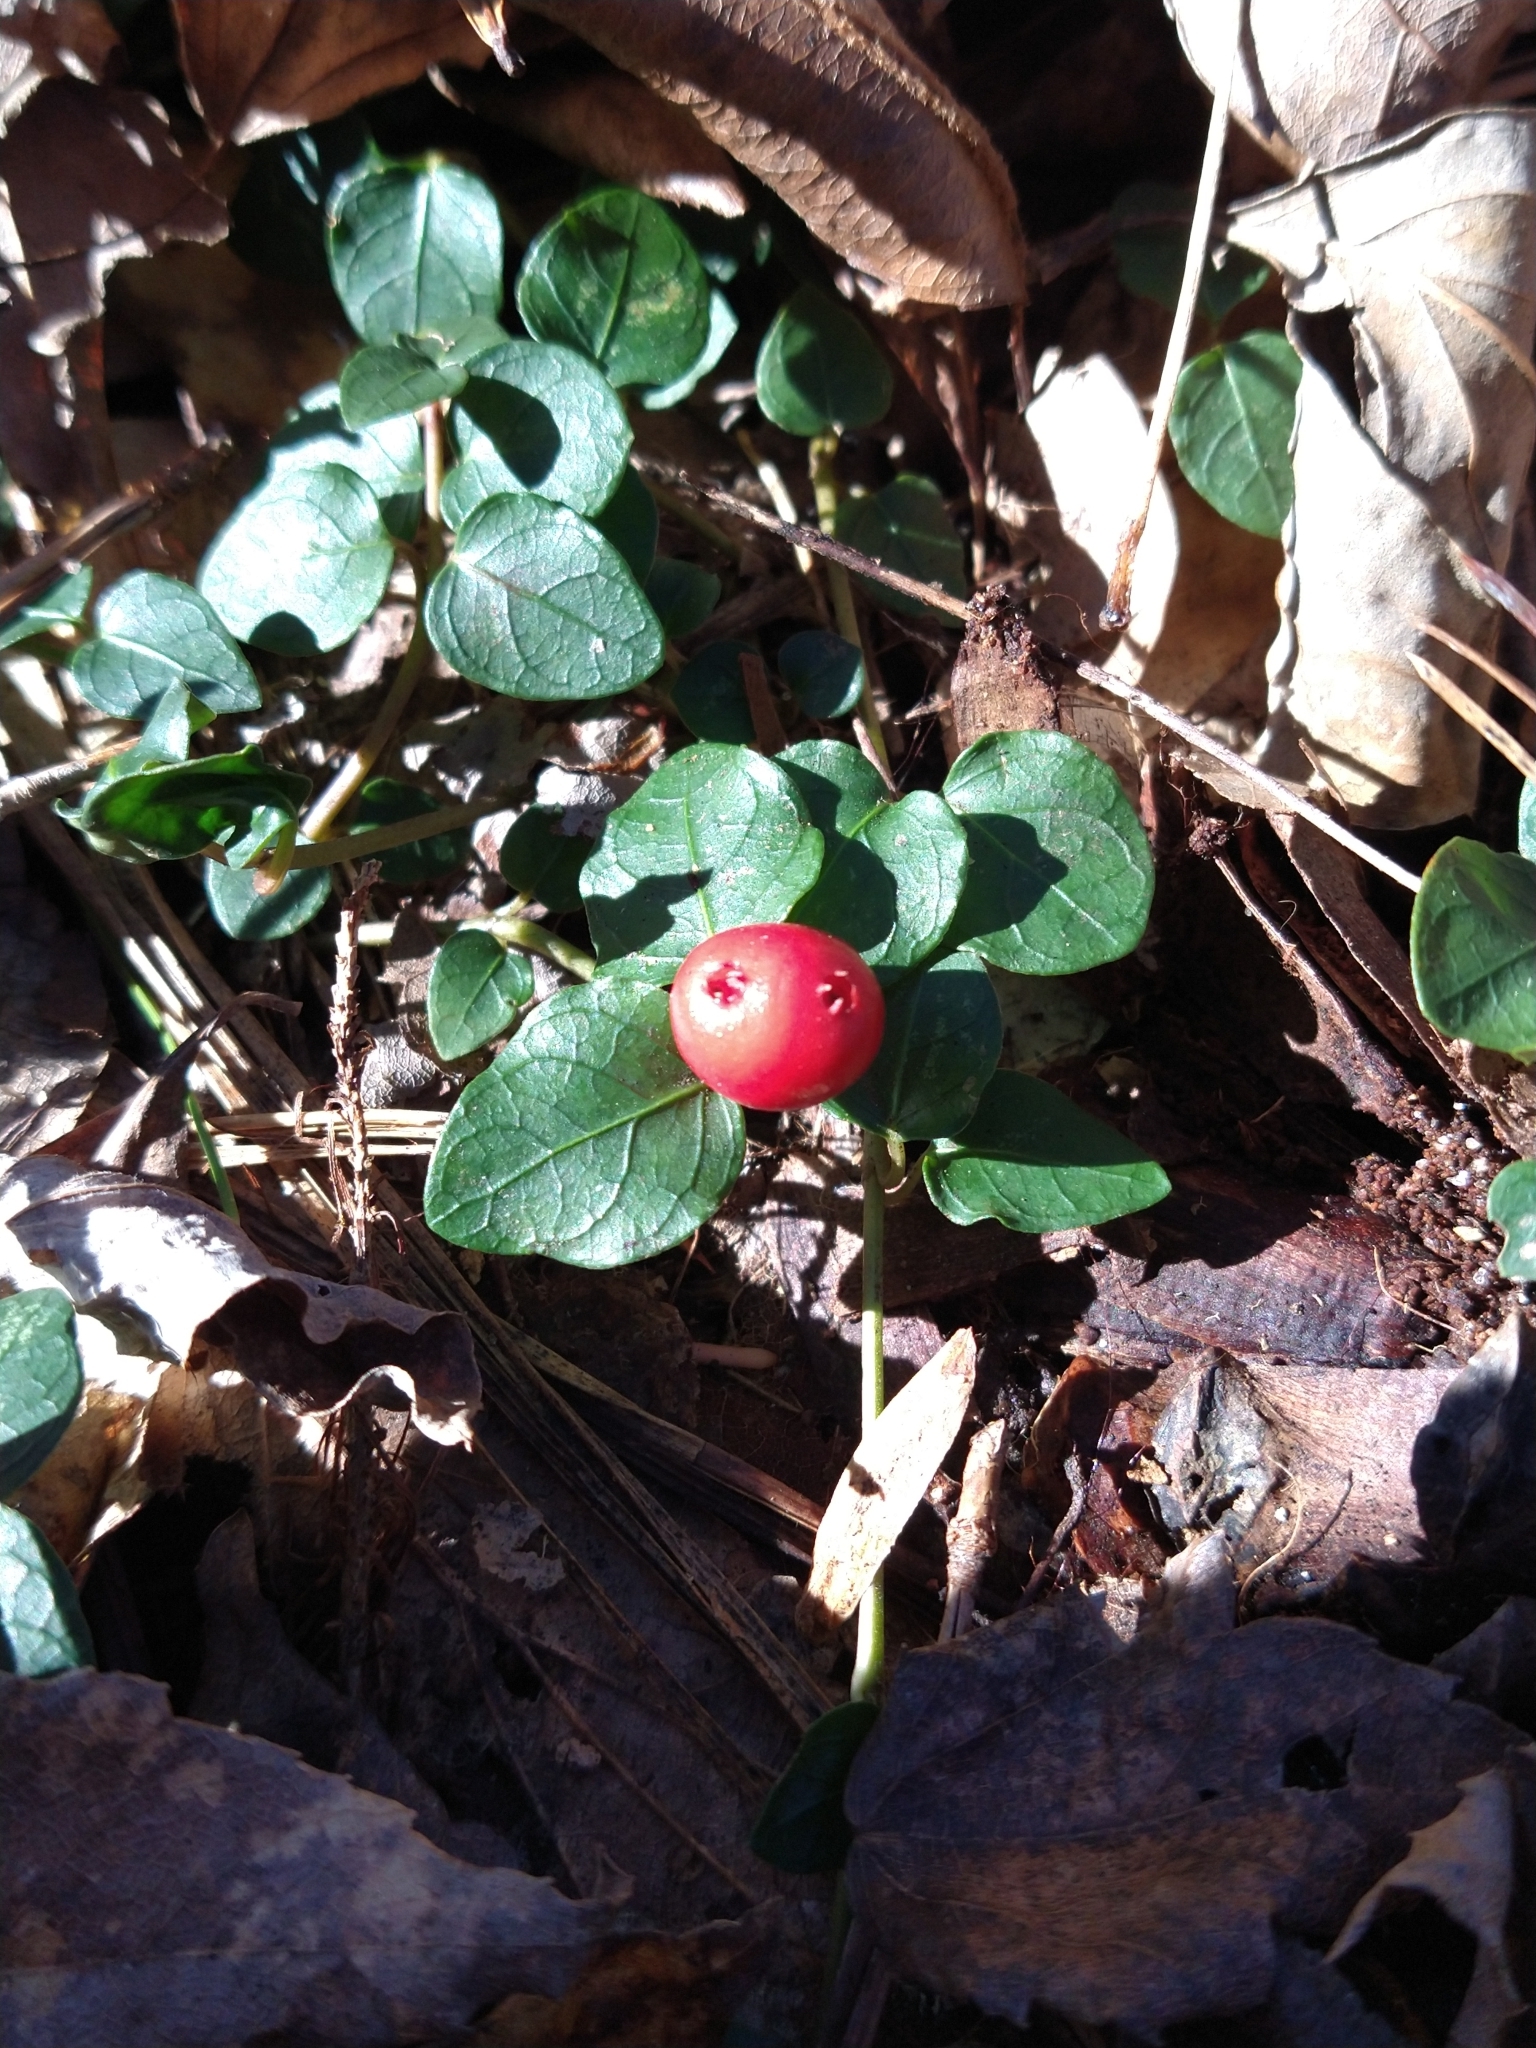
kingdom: Plantae
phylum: Tracheophyta
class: Magnoliopsida
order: Gentianales
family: Rubiaceae
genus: Mitchella
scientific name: Mitchella repens
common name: Partridge-berry
